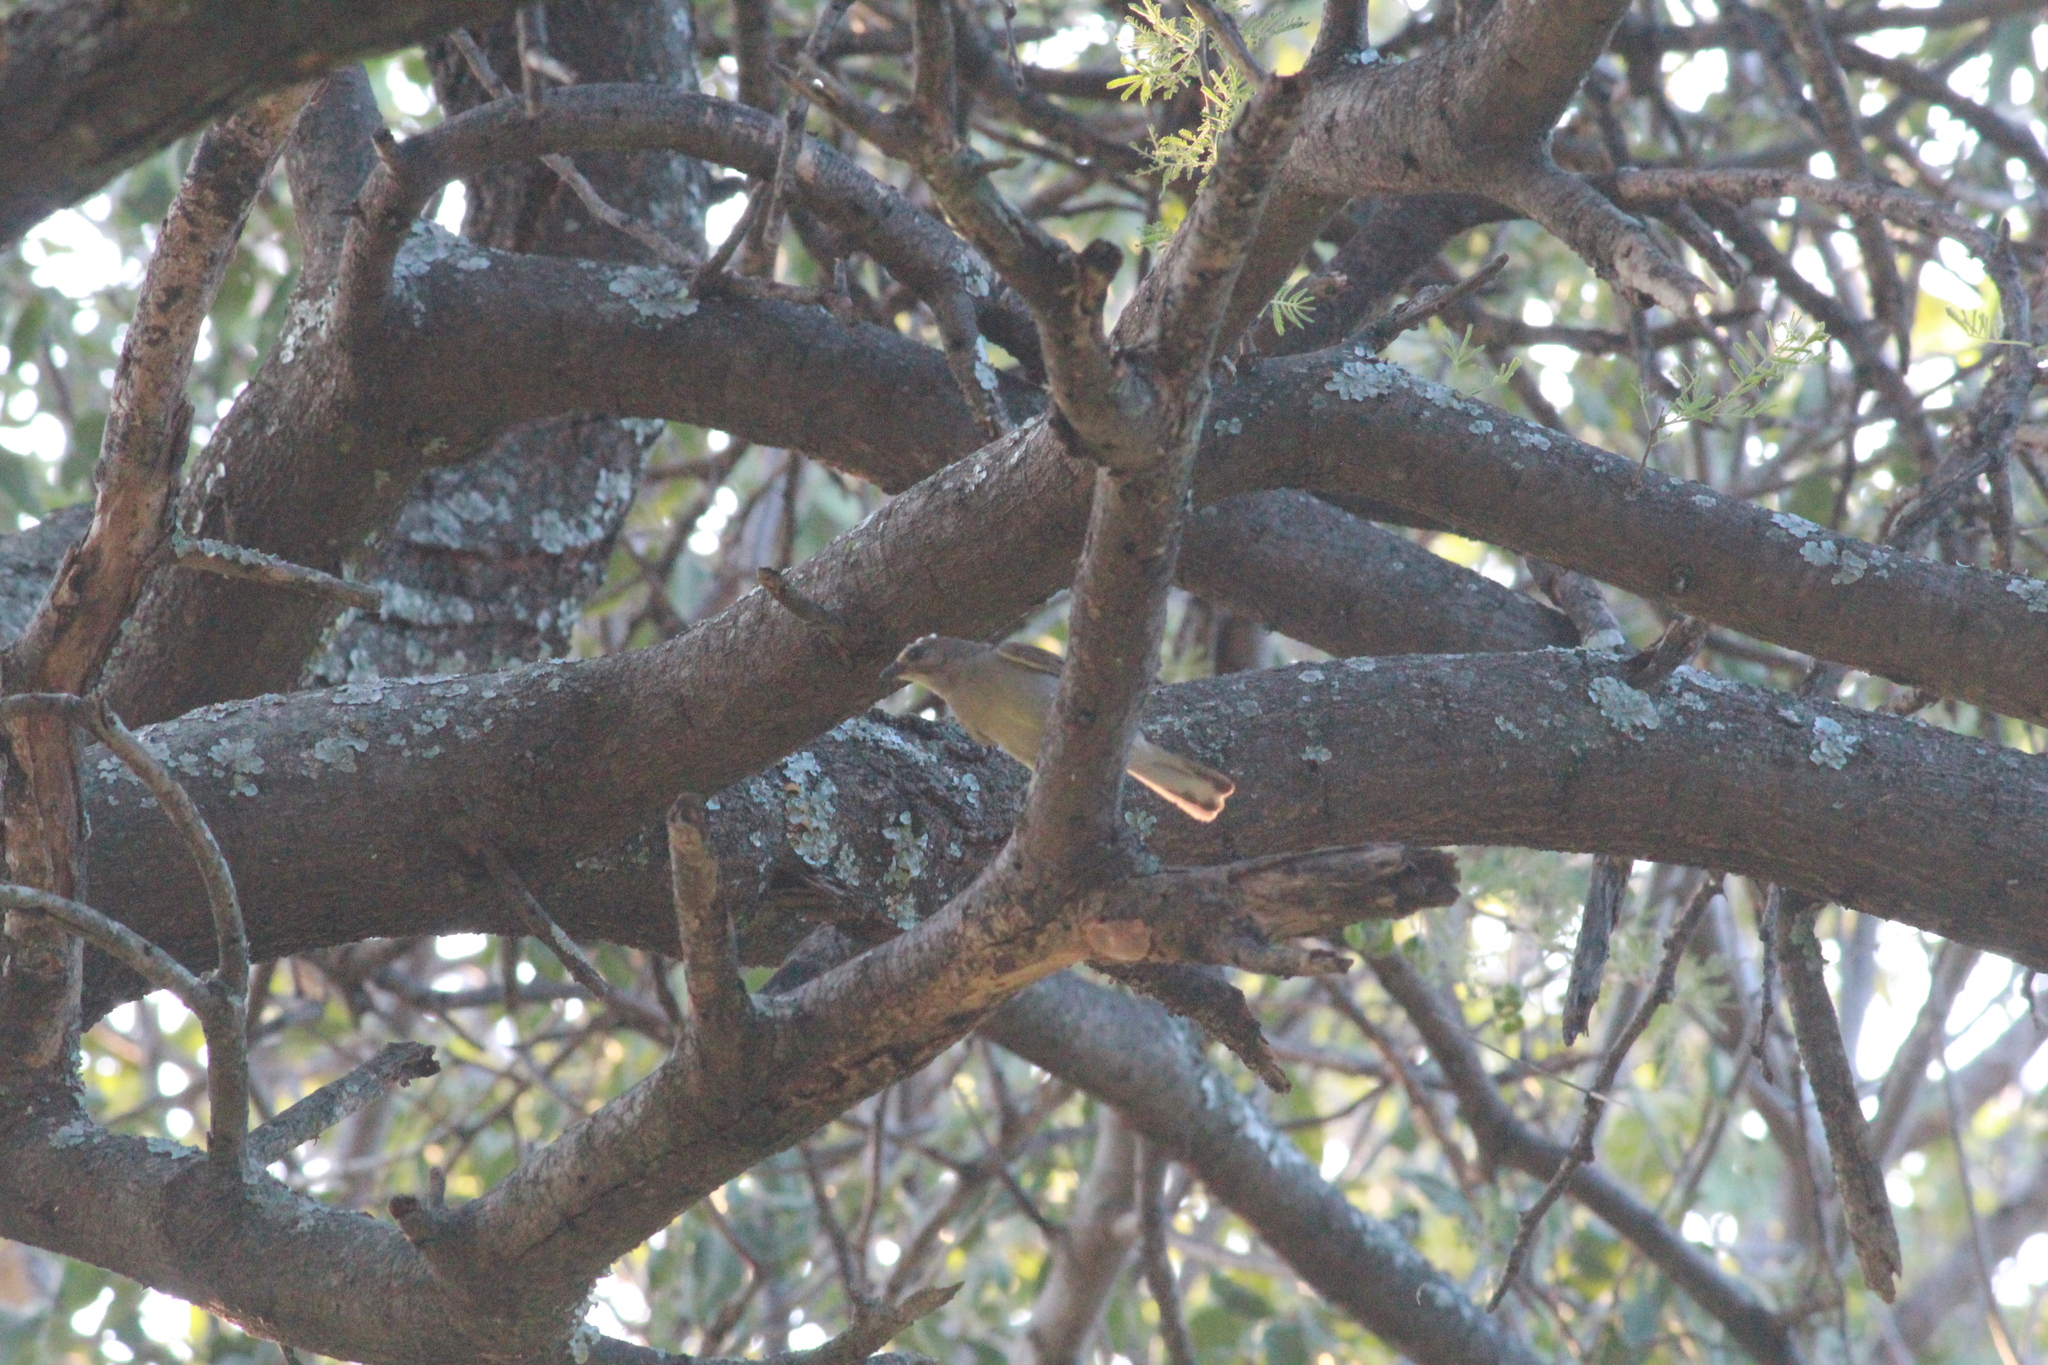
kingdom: Animalia
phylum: Chordata
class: Aves
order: Piciformes
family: Indicatoridae
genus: Indicator
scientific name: Indicator minor
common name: Lesser honeyguide
